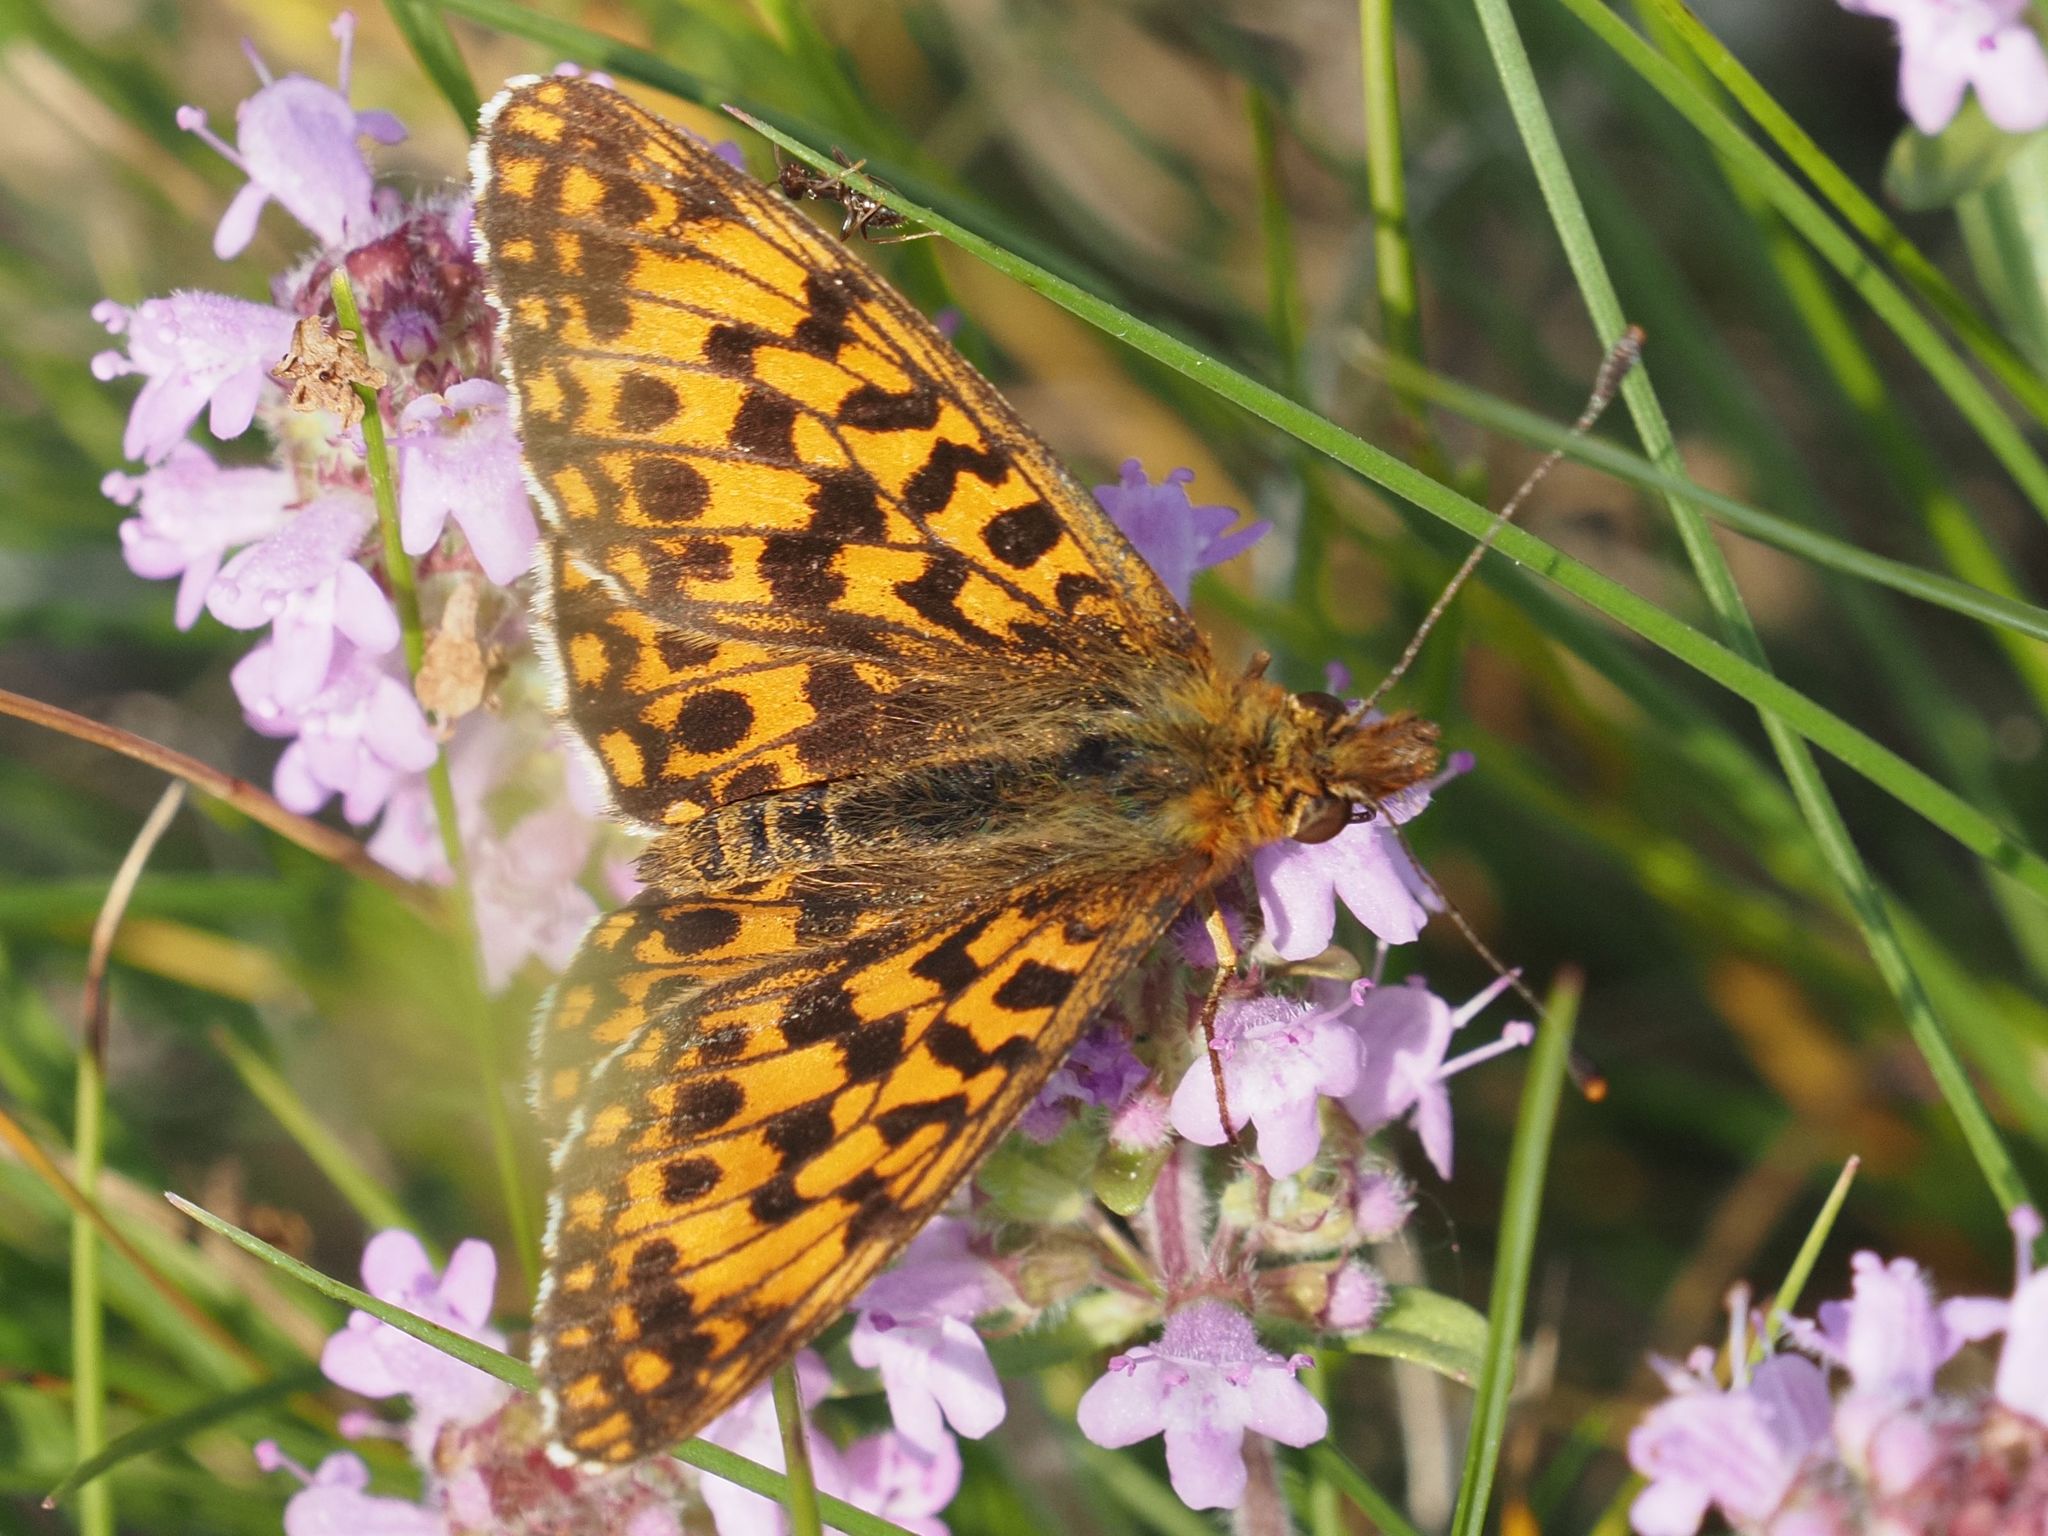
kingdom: Animalia
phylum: Arthropoda
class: Insecta
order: Lepidoptera
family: Nymphalidae
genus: Boloria
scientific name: Boloria dia
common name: Weaver's fritillary
